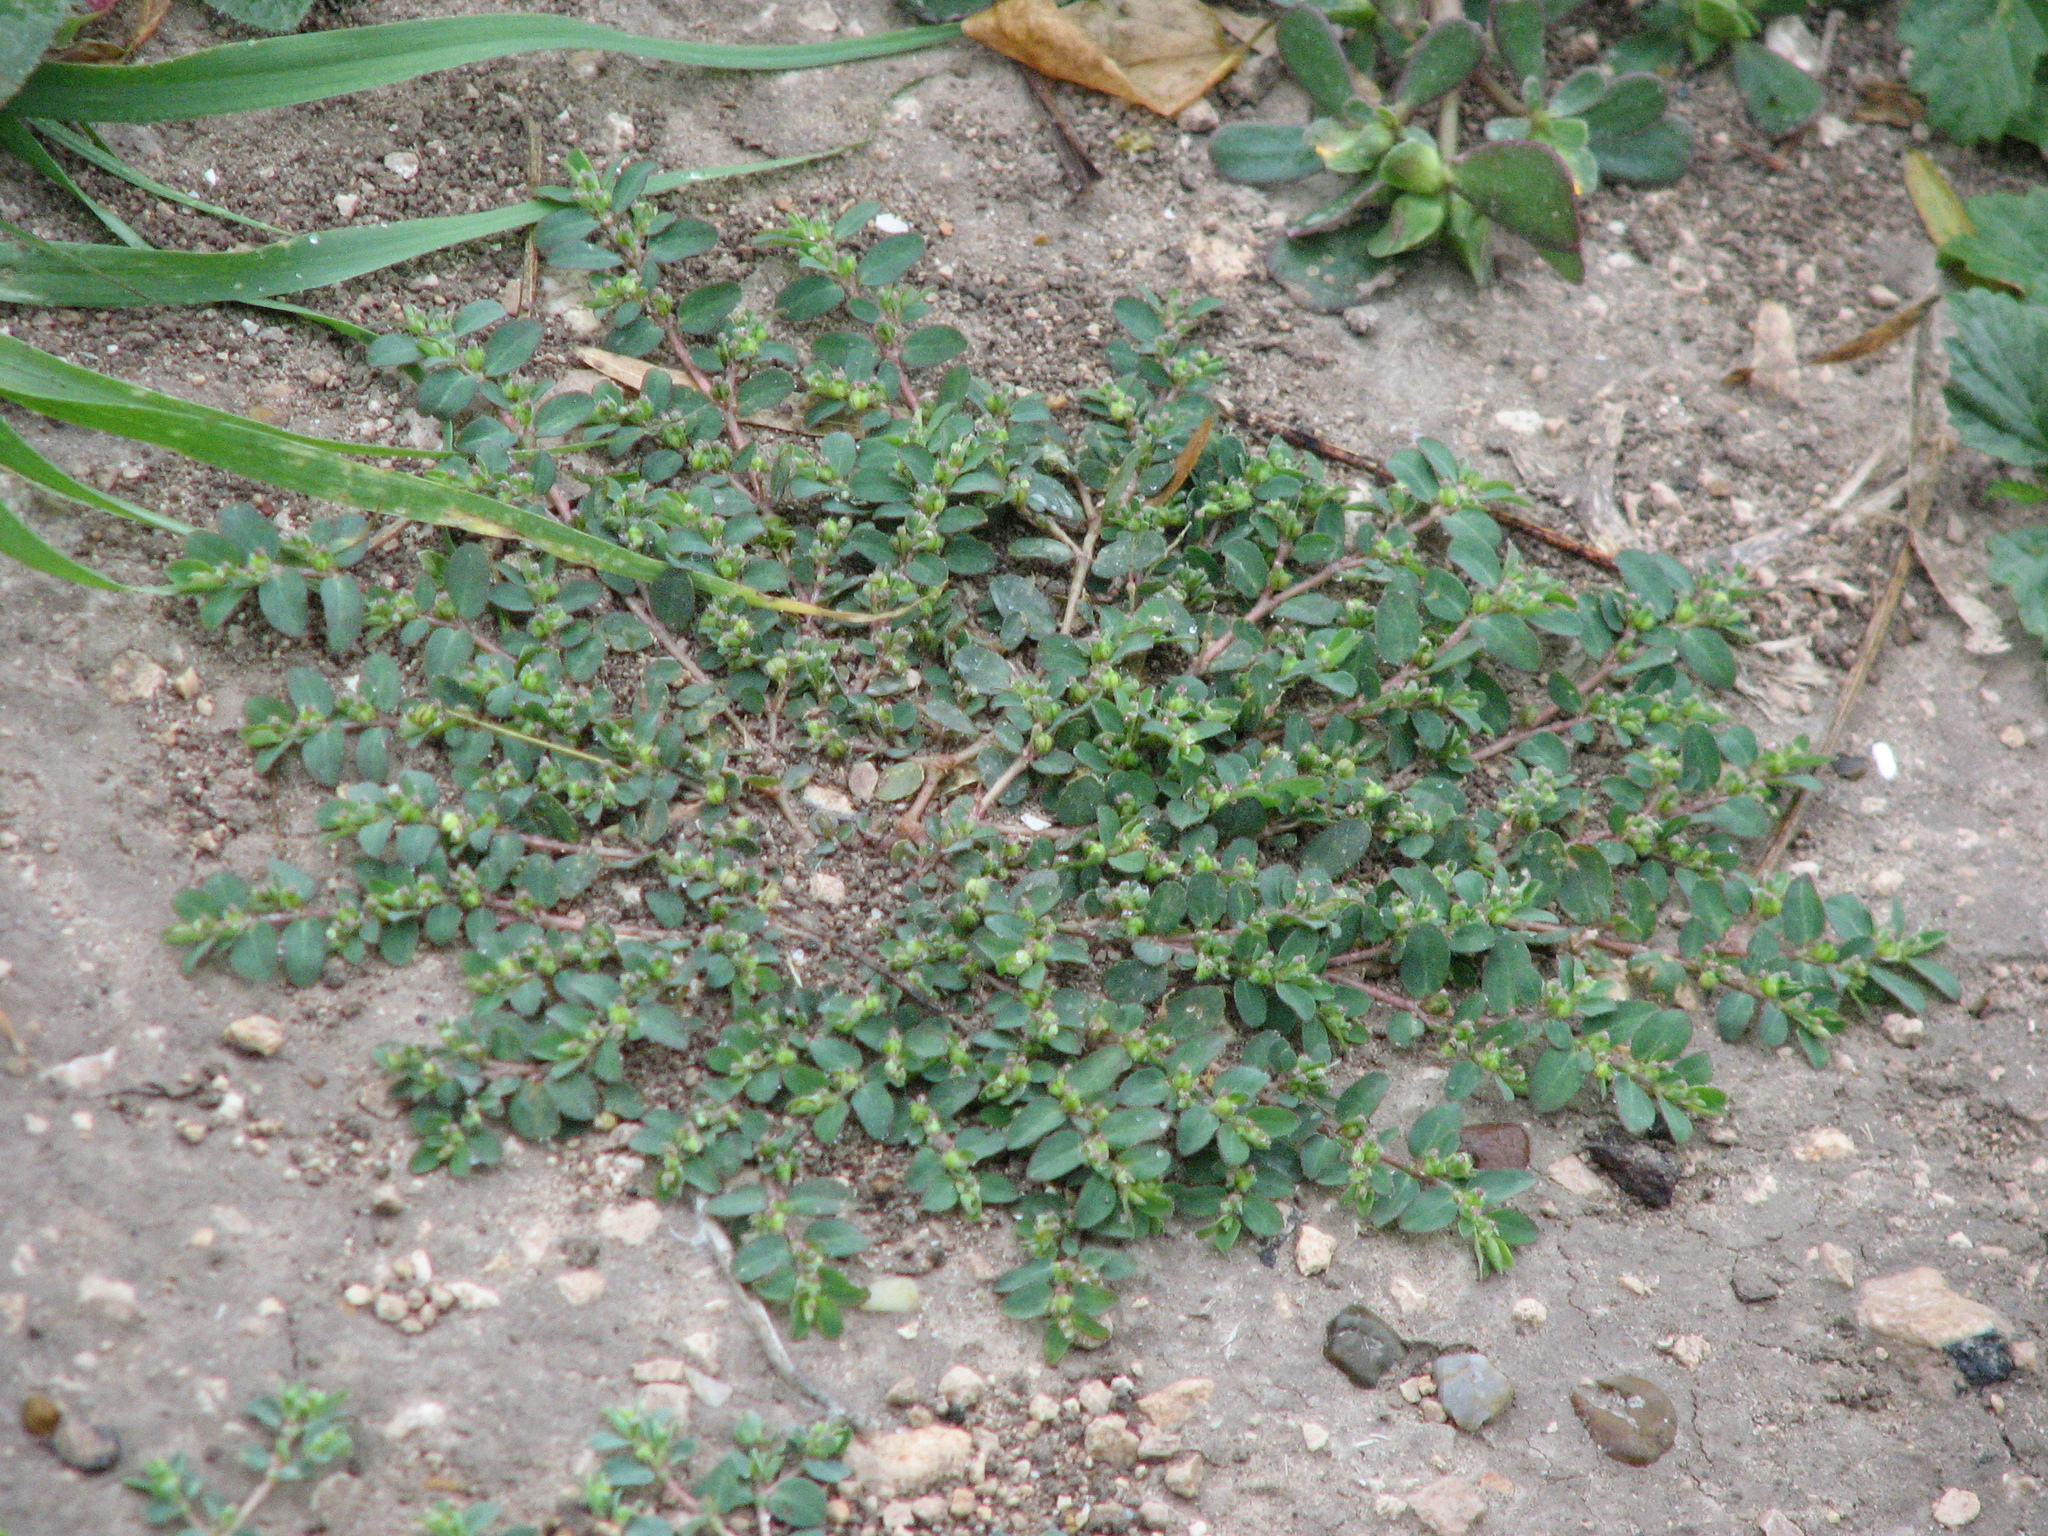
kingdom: Plantae
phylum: Tracheophyta
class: Magnoliopsida
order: Malpighiales
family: Euphorbiaceae
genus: Euphorbia
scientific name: Euphorbia prostrata
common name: Prostrate sandmat
